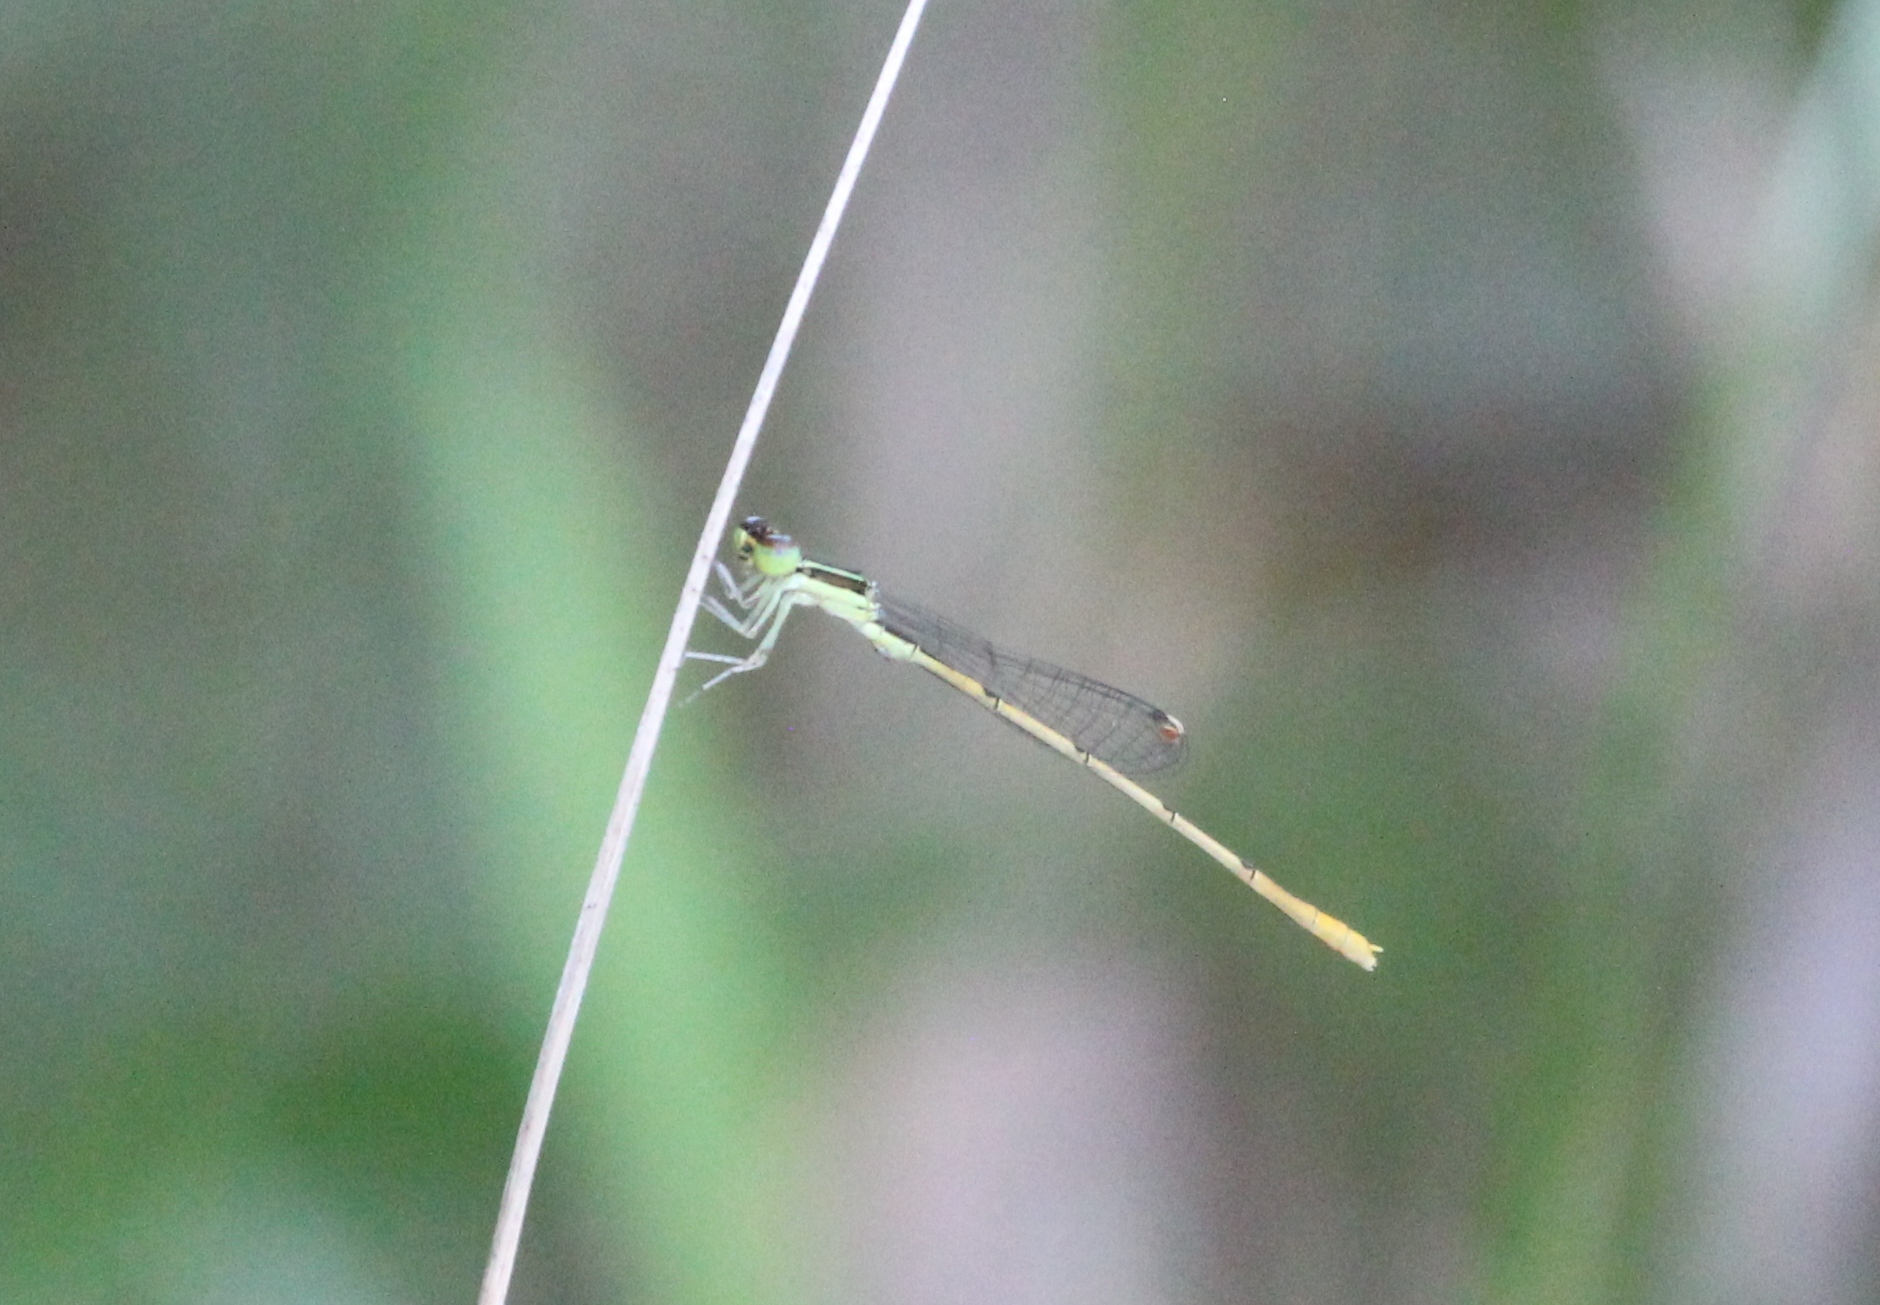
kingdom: Animalia
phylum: Arthropoda
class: Insecta
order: Odonata
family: Coenagrionidae
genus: Ischnura
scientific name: Ischnura hastata
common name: Citrine forktail
